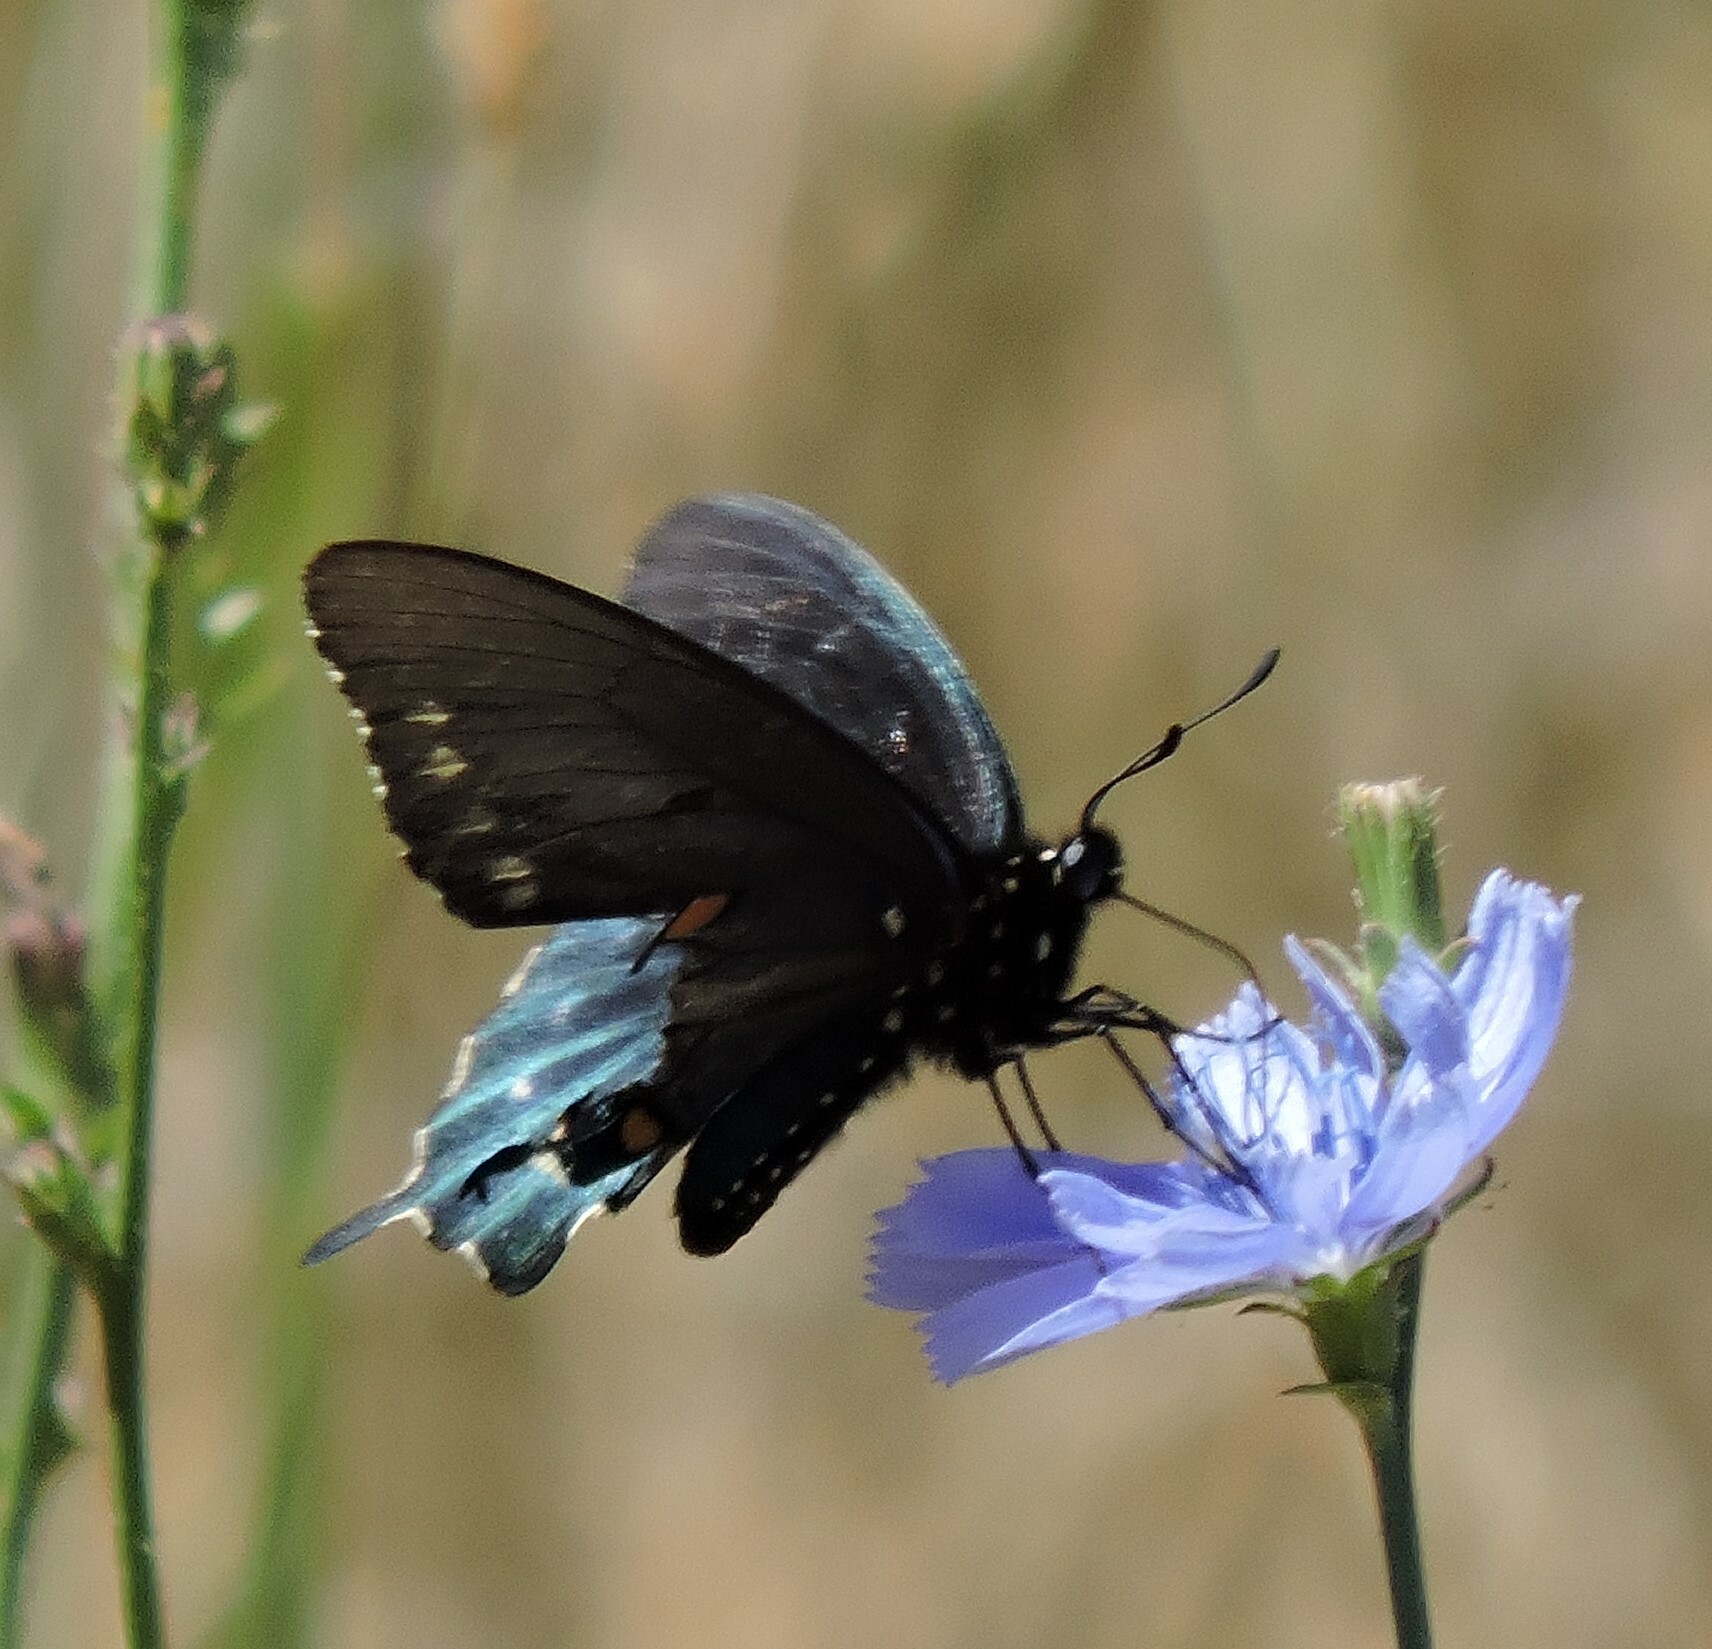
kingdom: Animalia
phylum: Arthropoda
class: Insecta
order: Lepidoptera
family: Papilionidae
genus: Battus
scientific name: Battus philenor
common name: Pipevine swallowtail
